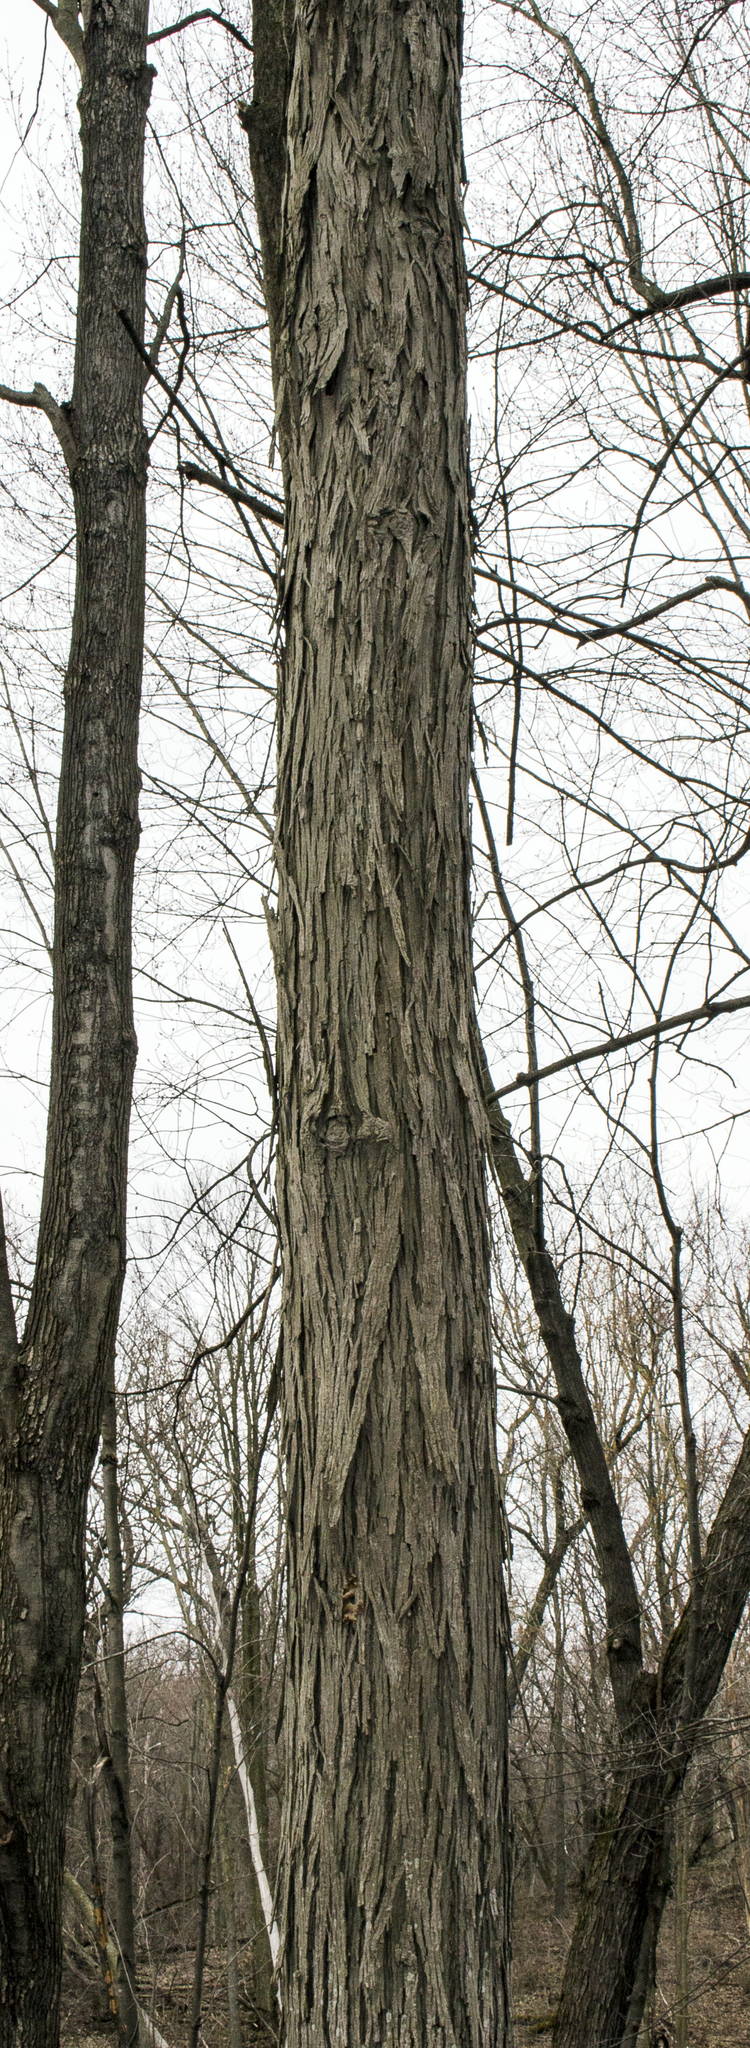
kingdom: Plantae
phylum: Tracheophyta
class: Magnoliopsida
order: Fagales
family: Juglandaceae
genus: Carya
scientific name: Carya ovata
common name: Shagbark hickory
